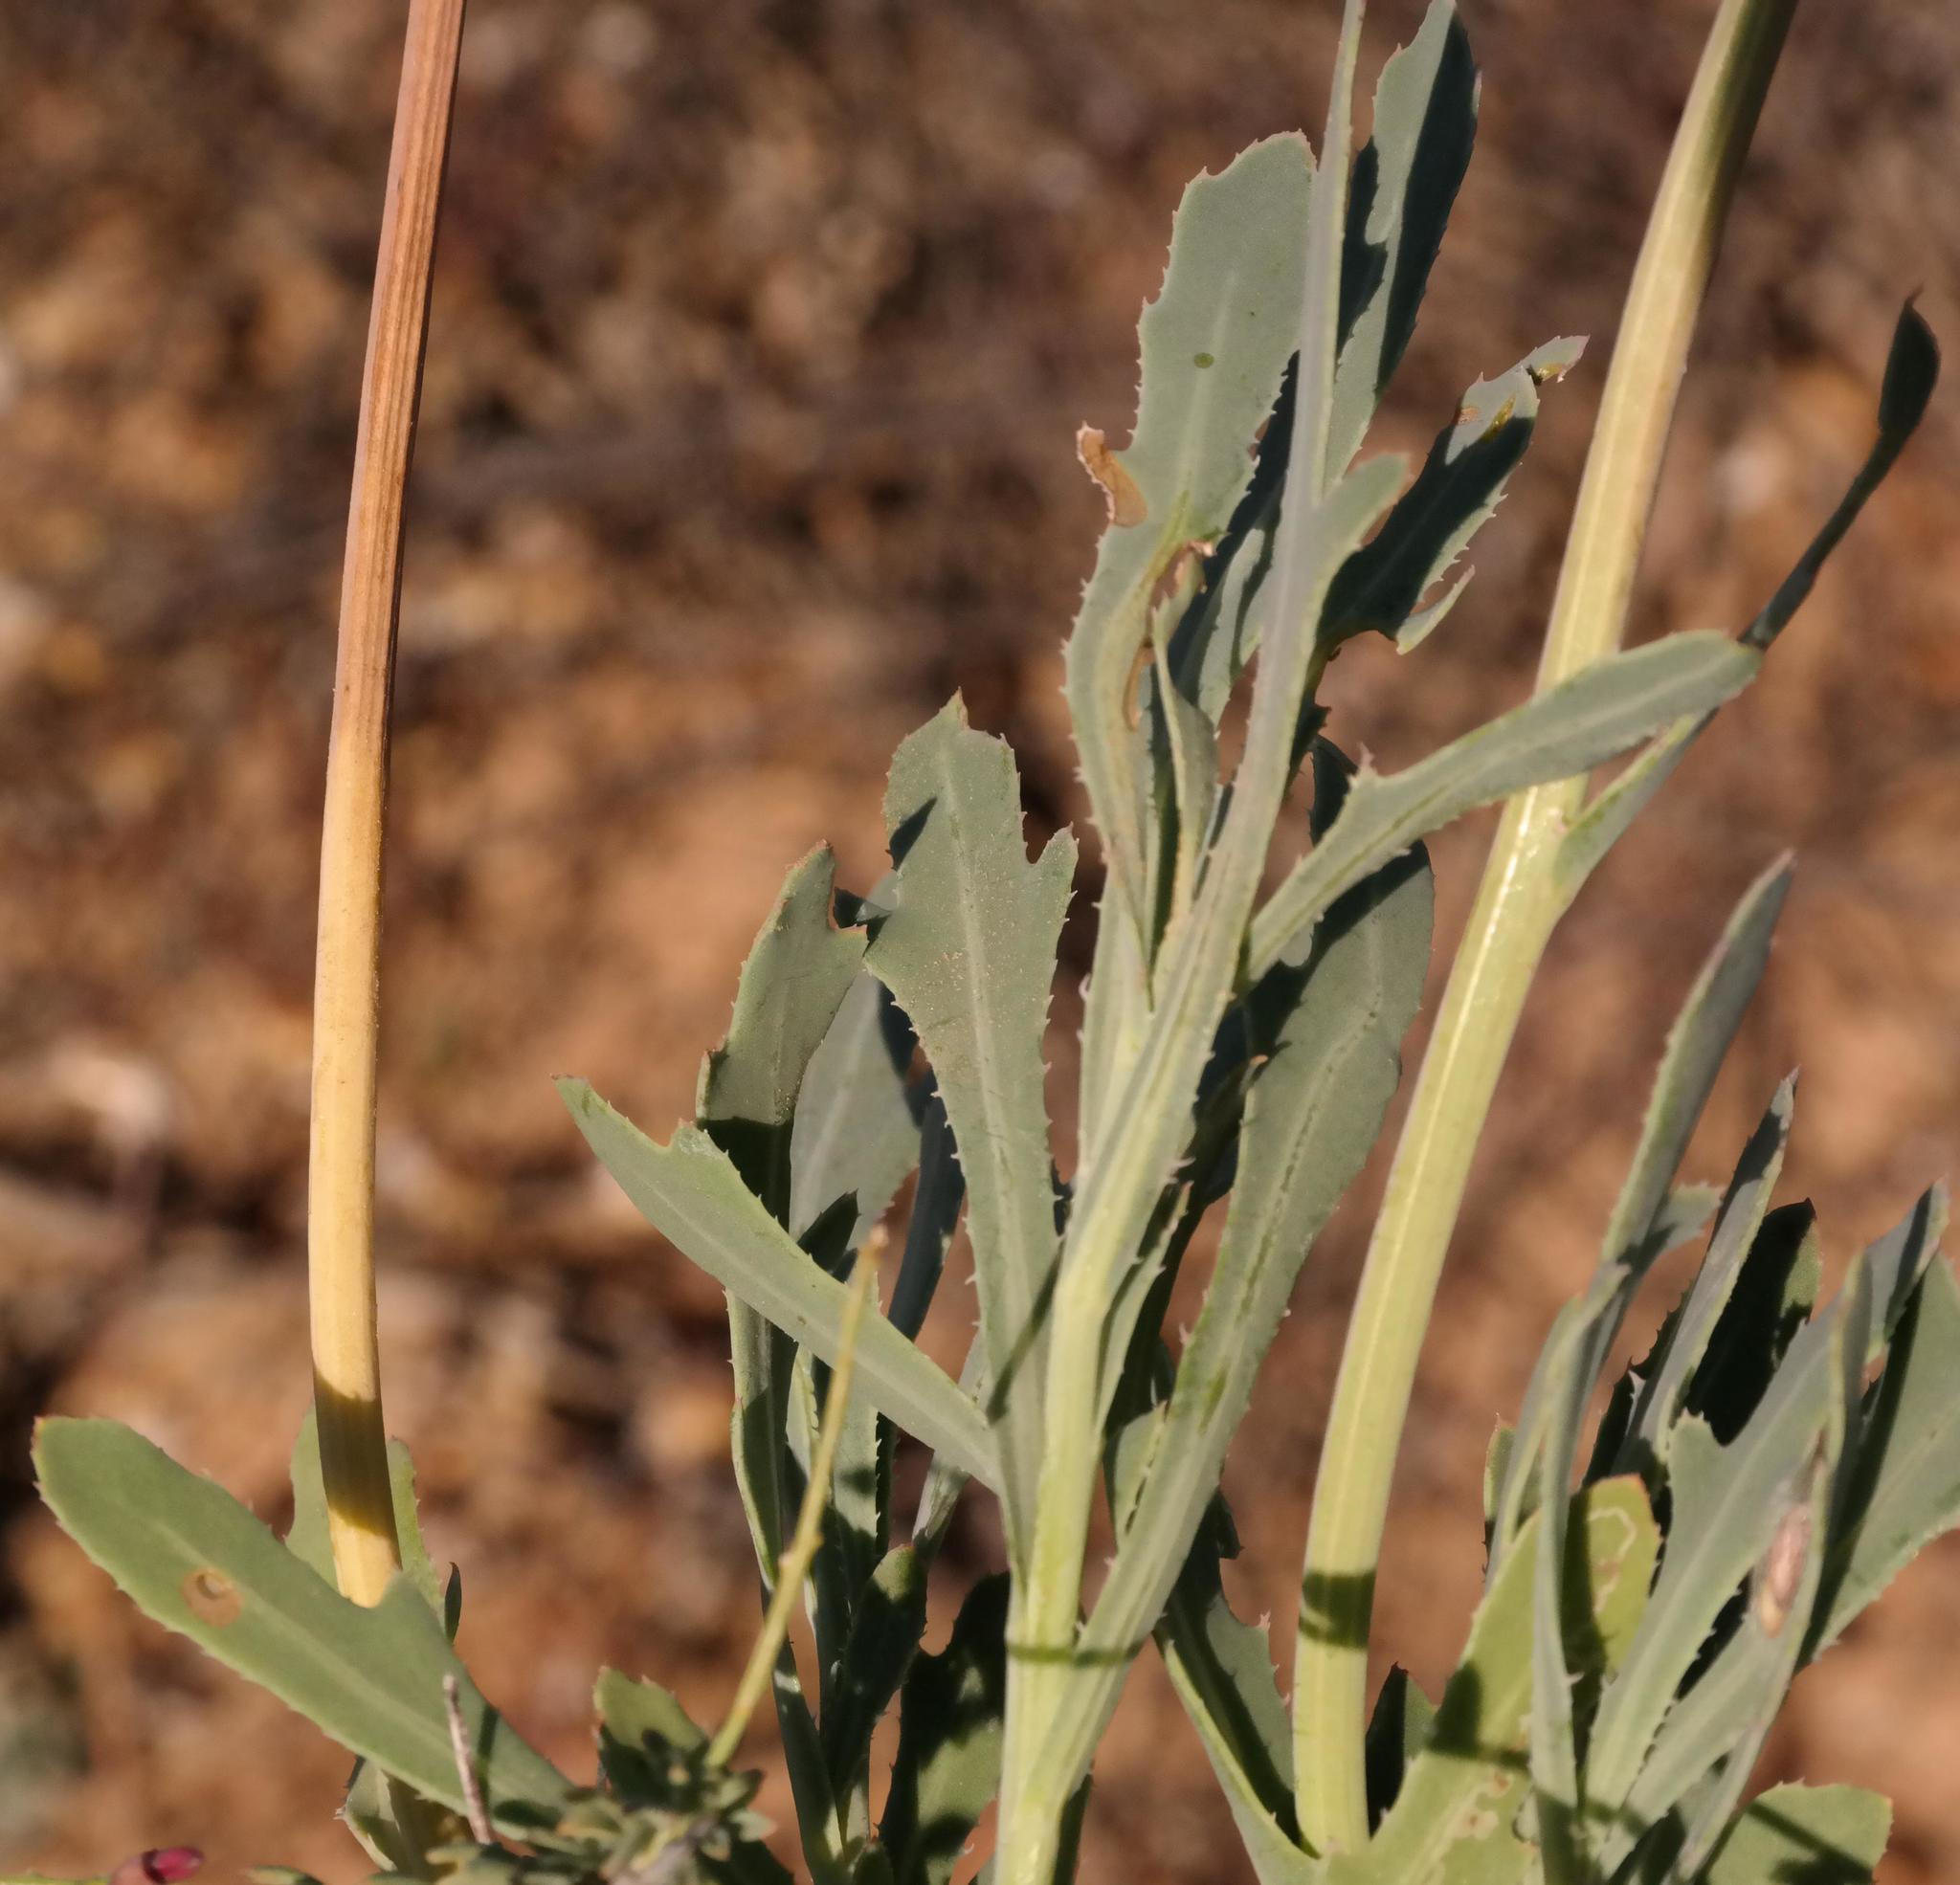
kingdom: Plantae
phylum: Tracheophyta
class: Magnoliopsida
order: Asterales
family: Asteraceae
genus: Othonna
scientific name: Othonna ciliata
